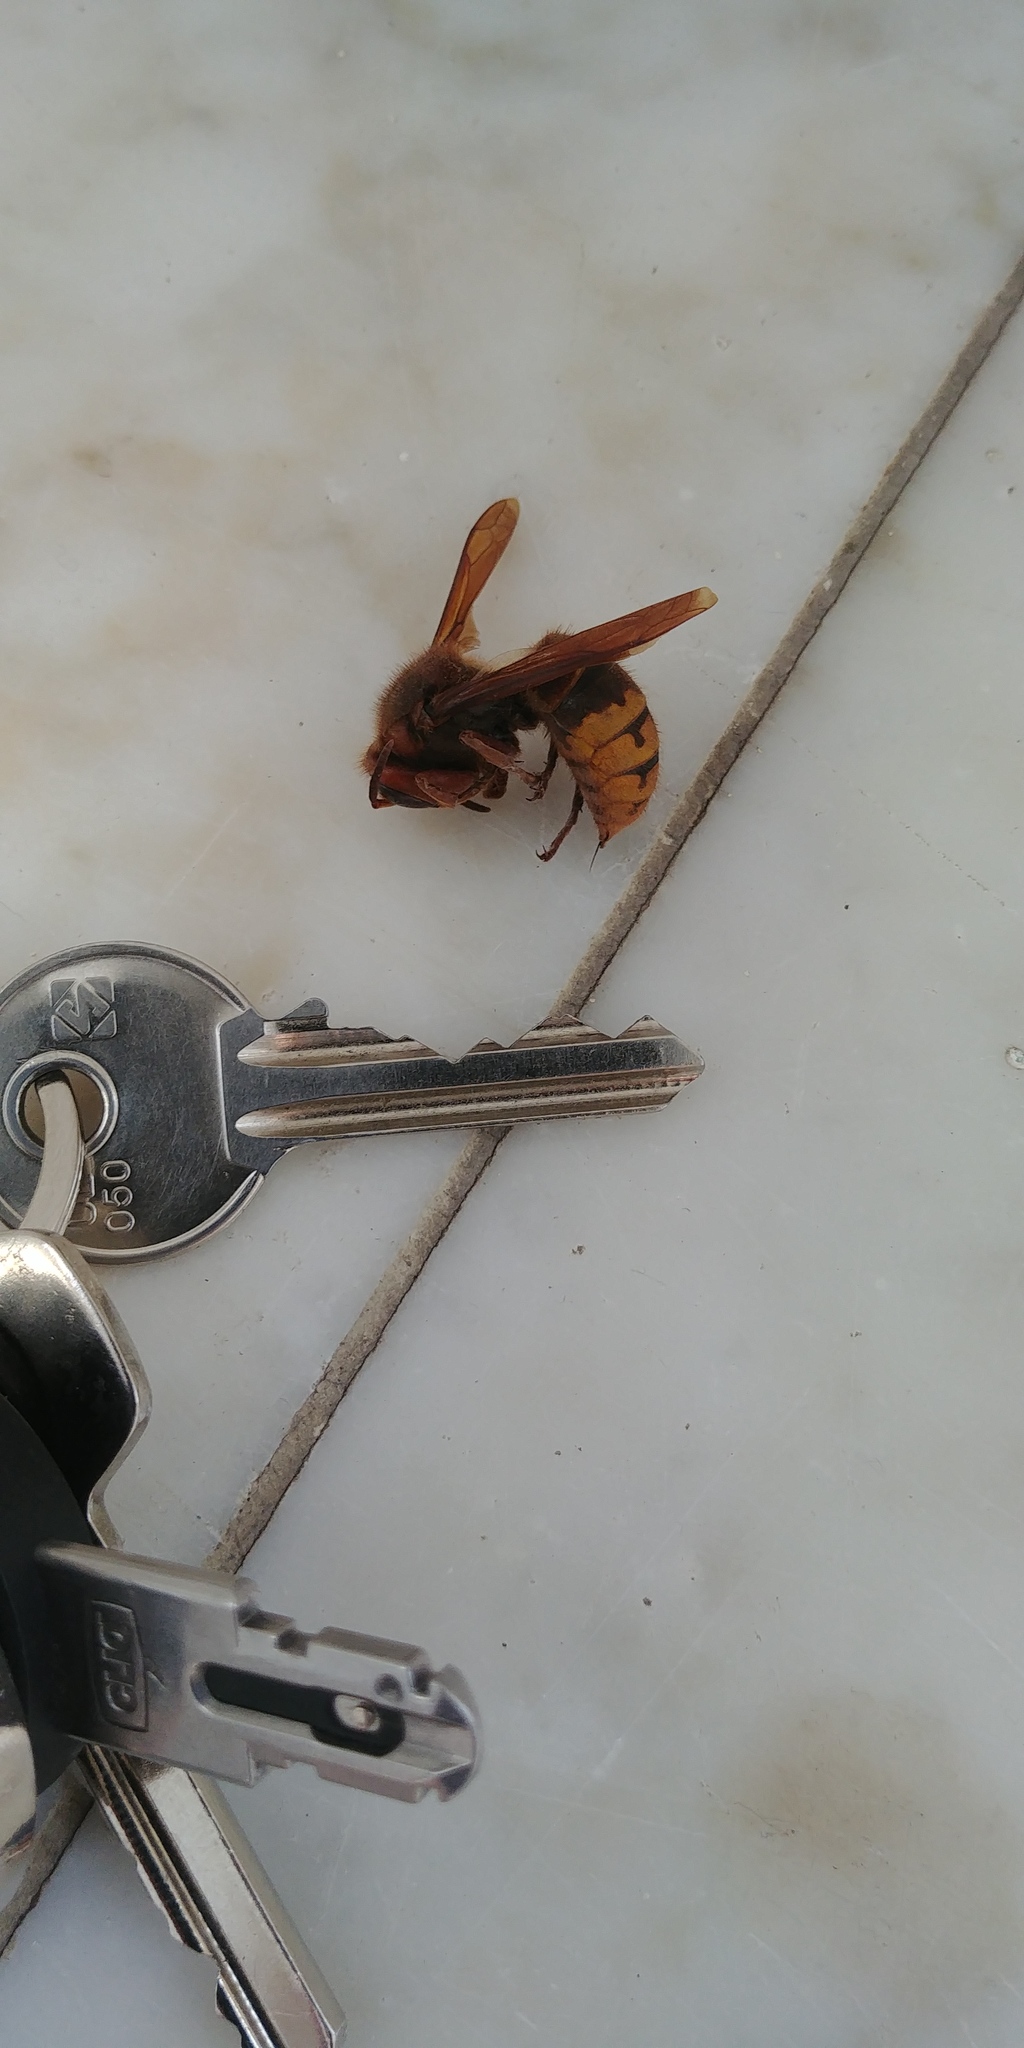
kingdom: Animalia
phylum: Arthropoda
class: Insecta
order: Hymenoptera
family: Vespidae
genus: Vespa
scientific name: Vespa crabro
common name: Hornet
